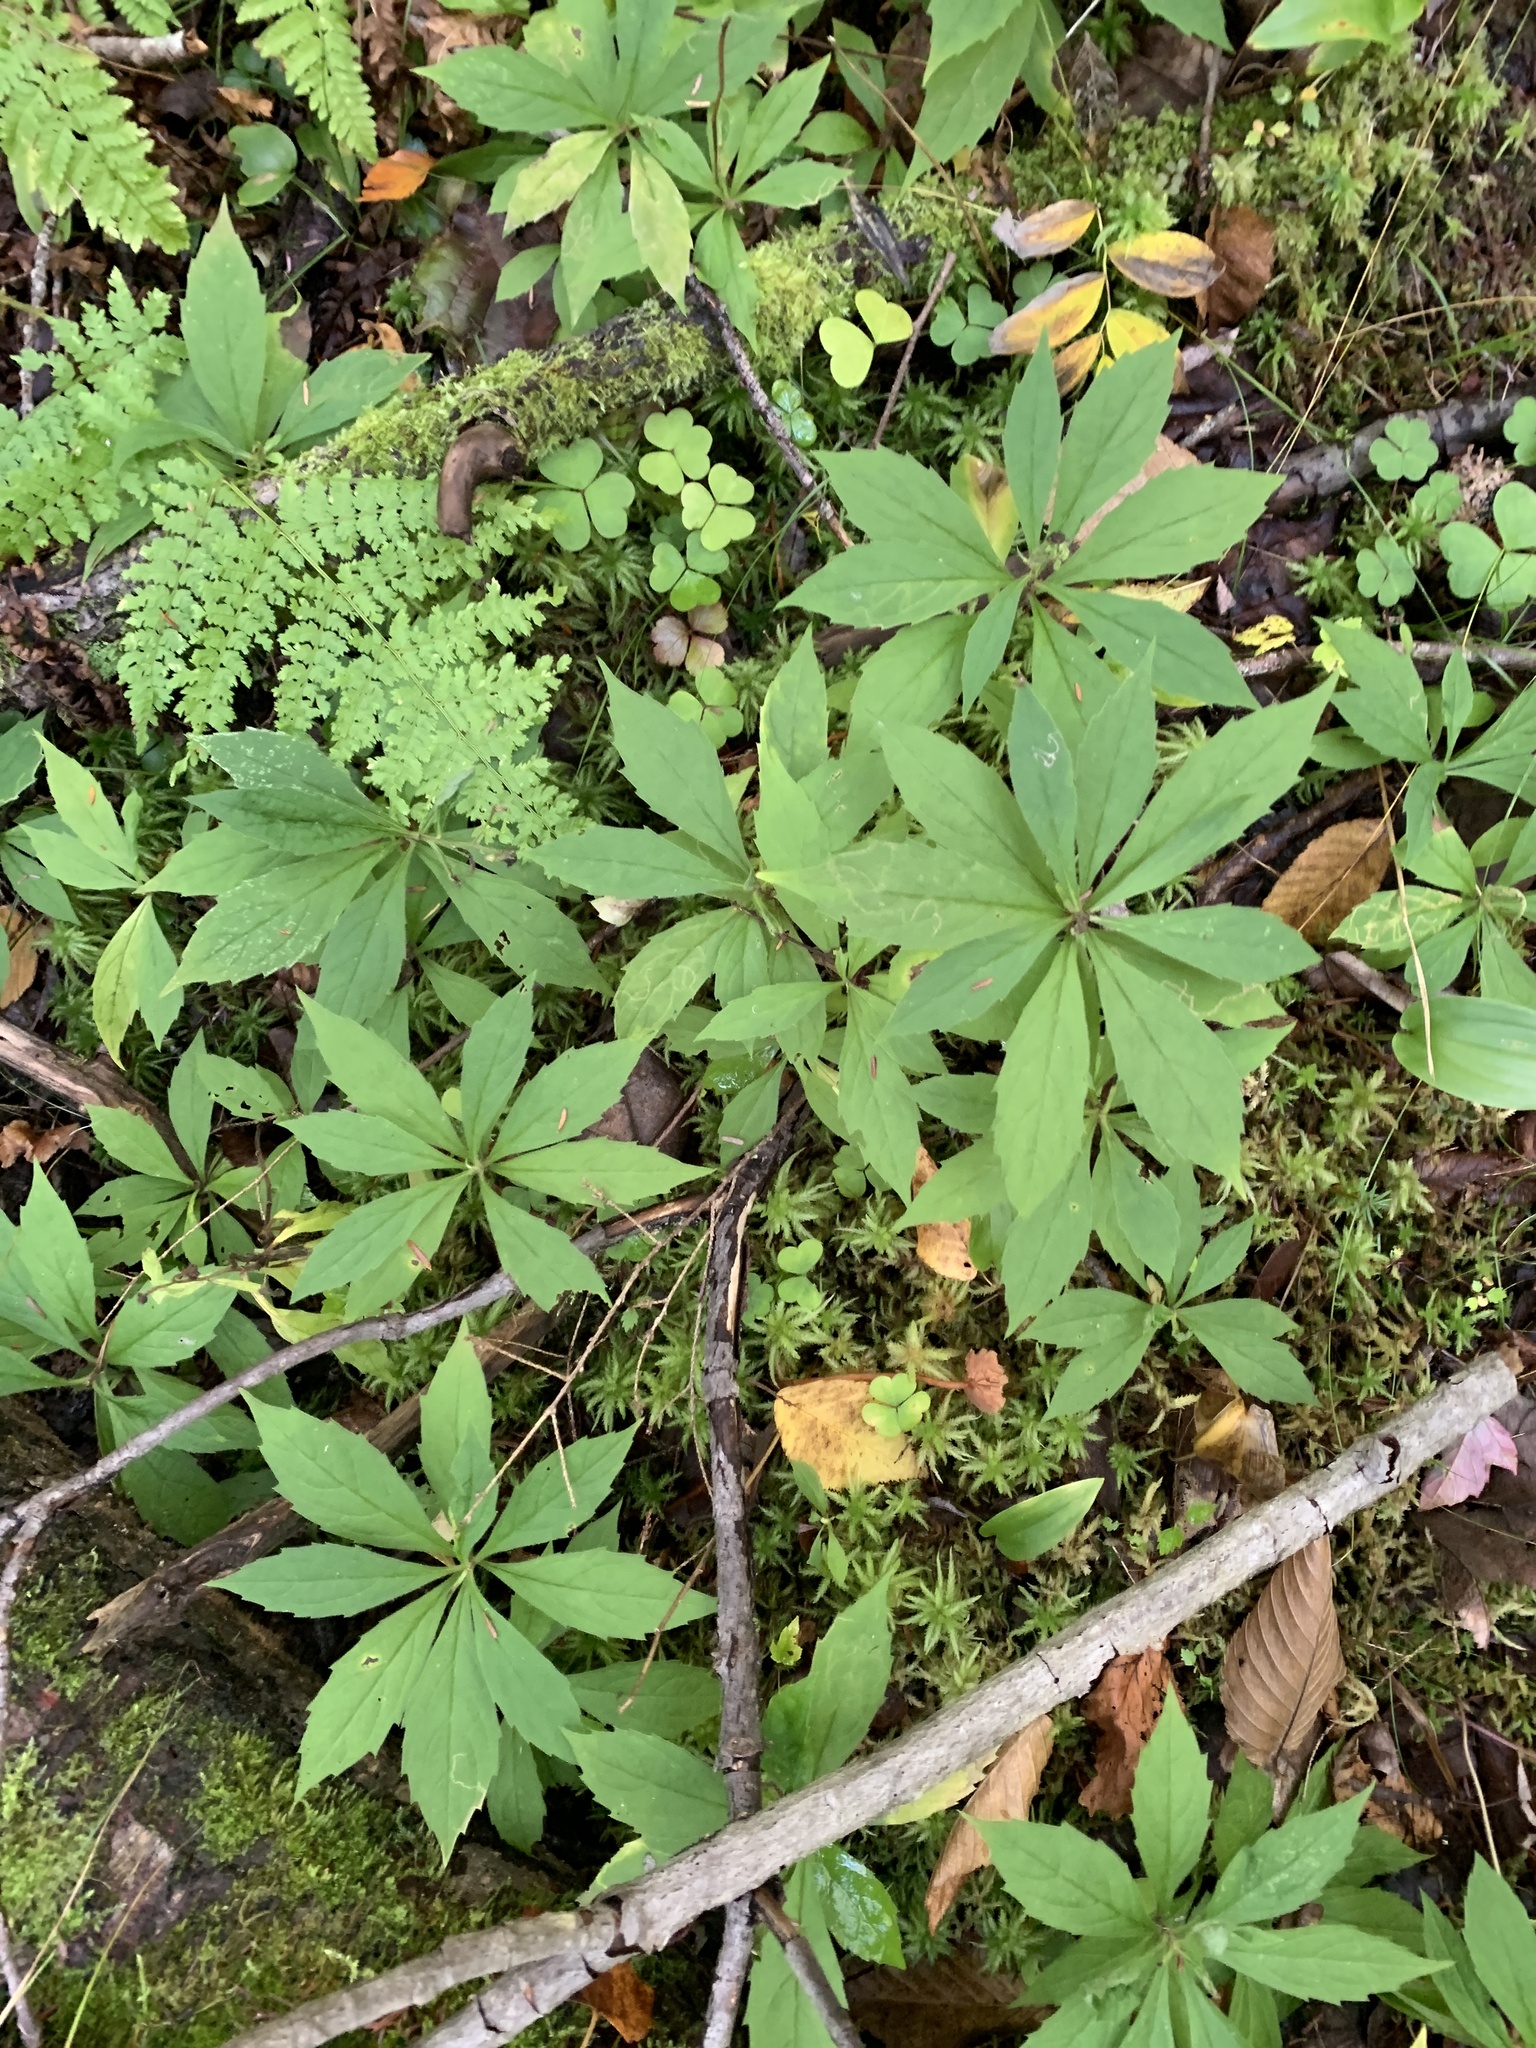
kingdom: Plantae
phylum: Tracheophyta
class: Magnoliopsida
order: Asterales
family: Asteraceae
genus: Oclemena
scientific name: Oclemena acuminata
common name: Mountain aster
